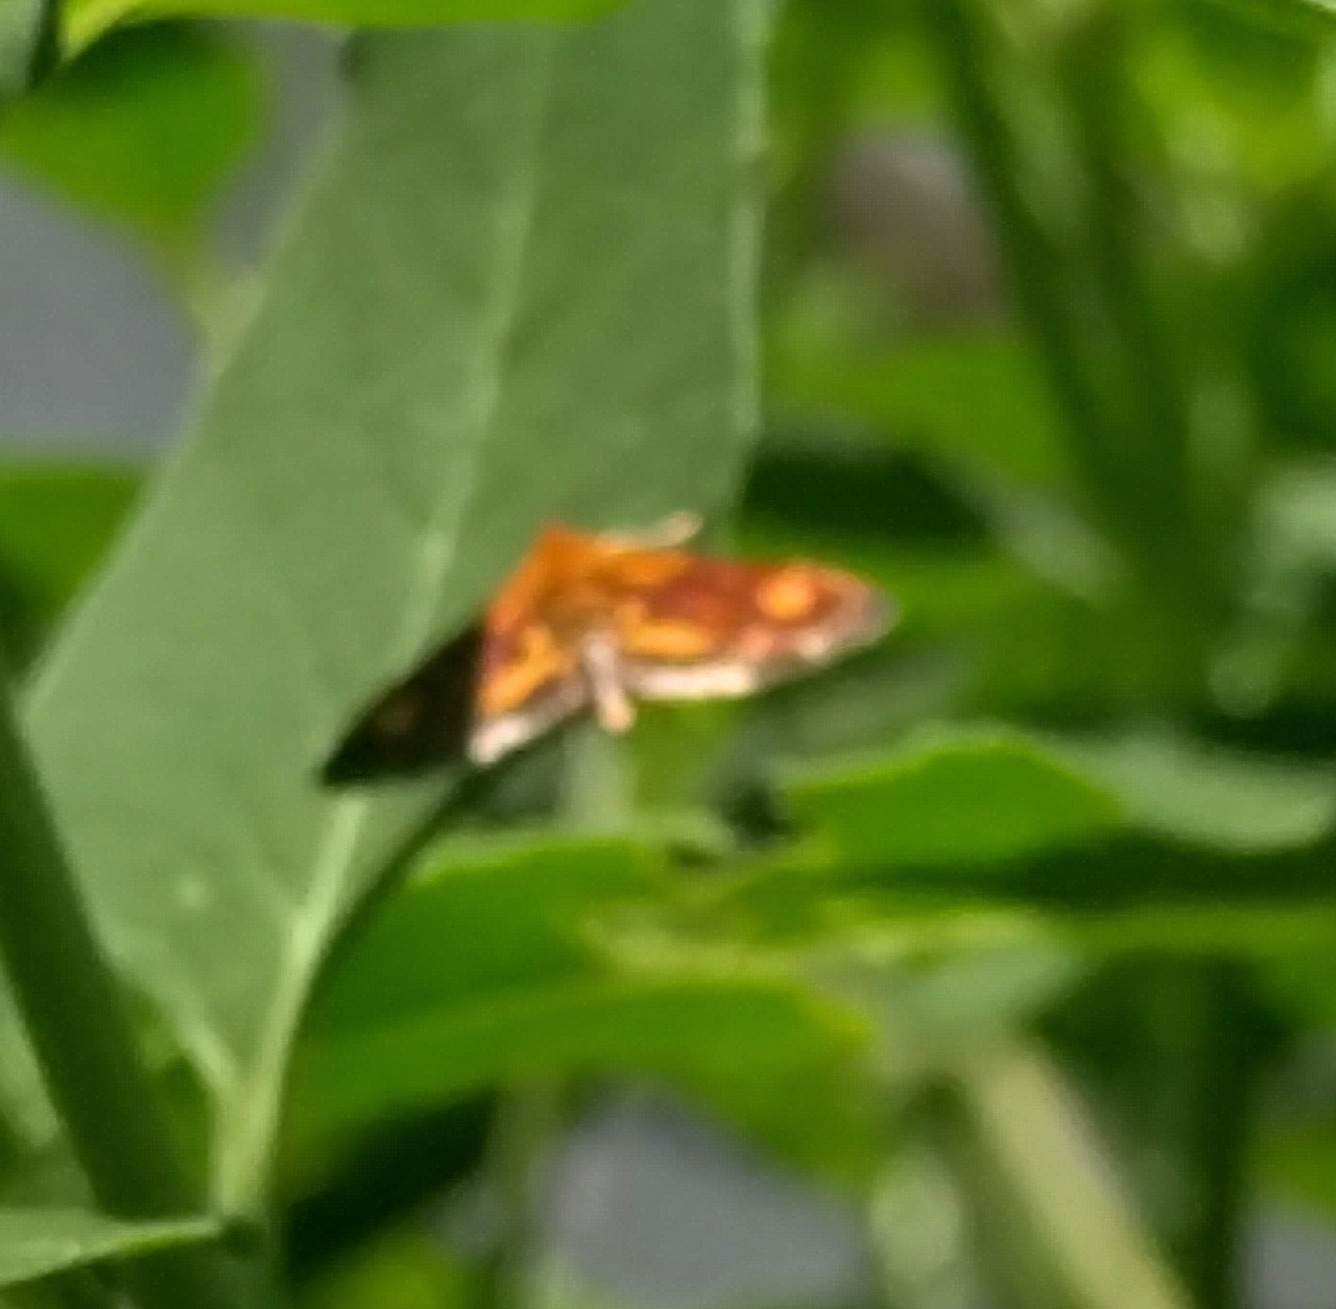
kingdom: Animalia
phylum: Arthropoda
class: Insecta
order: Lepidoptera
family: Crambidae
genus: Pyrausta
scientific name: Pyrausta orphisalis
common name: Orange mint moth
